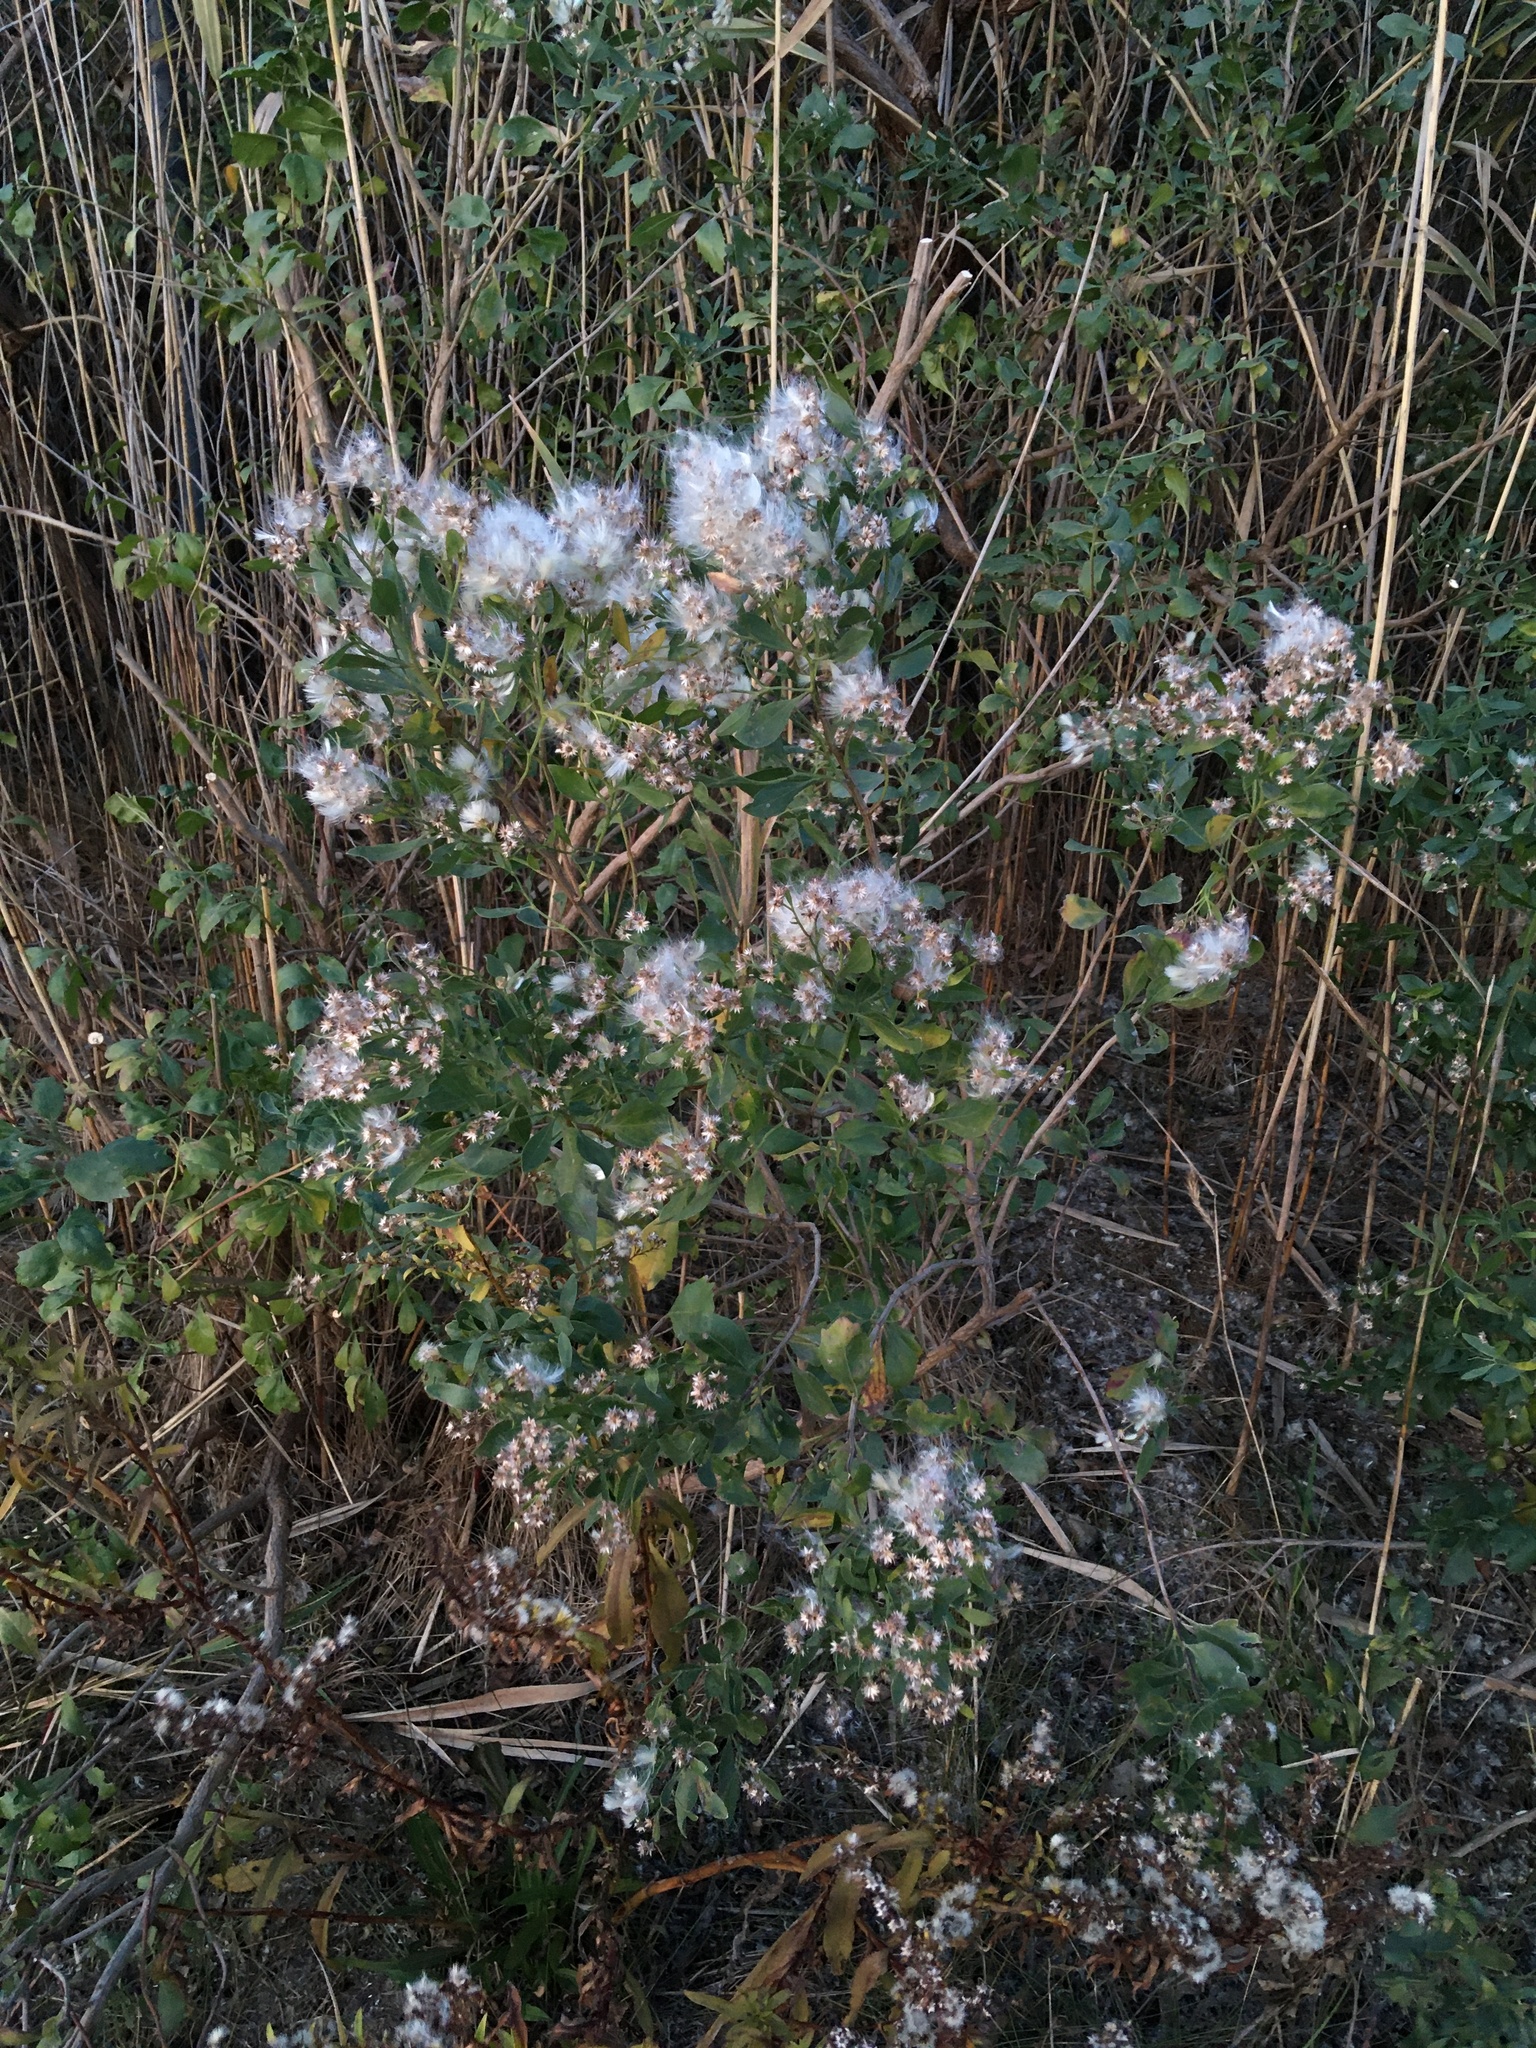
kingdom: Plantae
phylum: Tracheophyta
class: Magnoliopsida
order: Asterales
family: Asteraceae
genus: Baccharis
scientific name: Baccharis halimifolia
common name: Eastern baccharis
